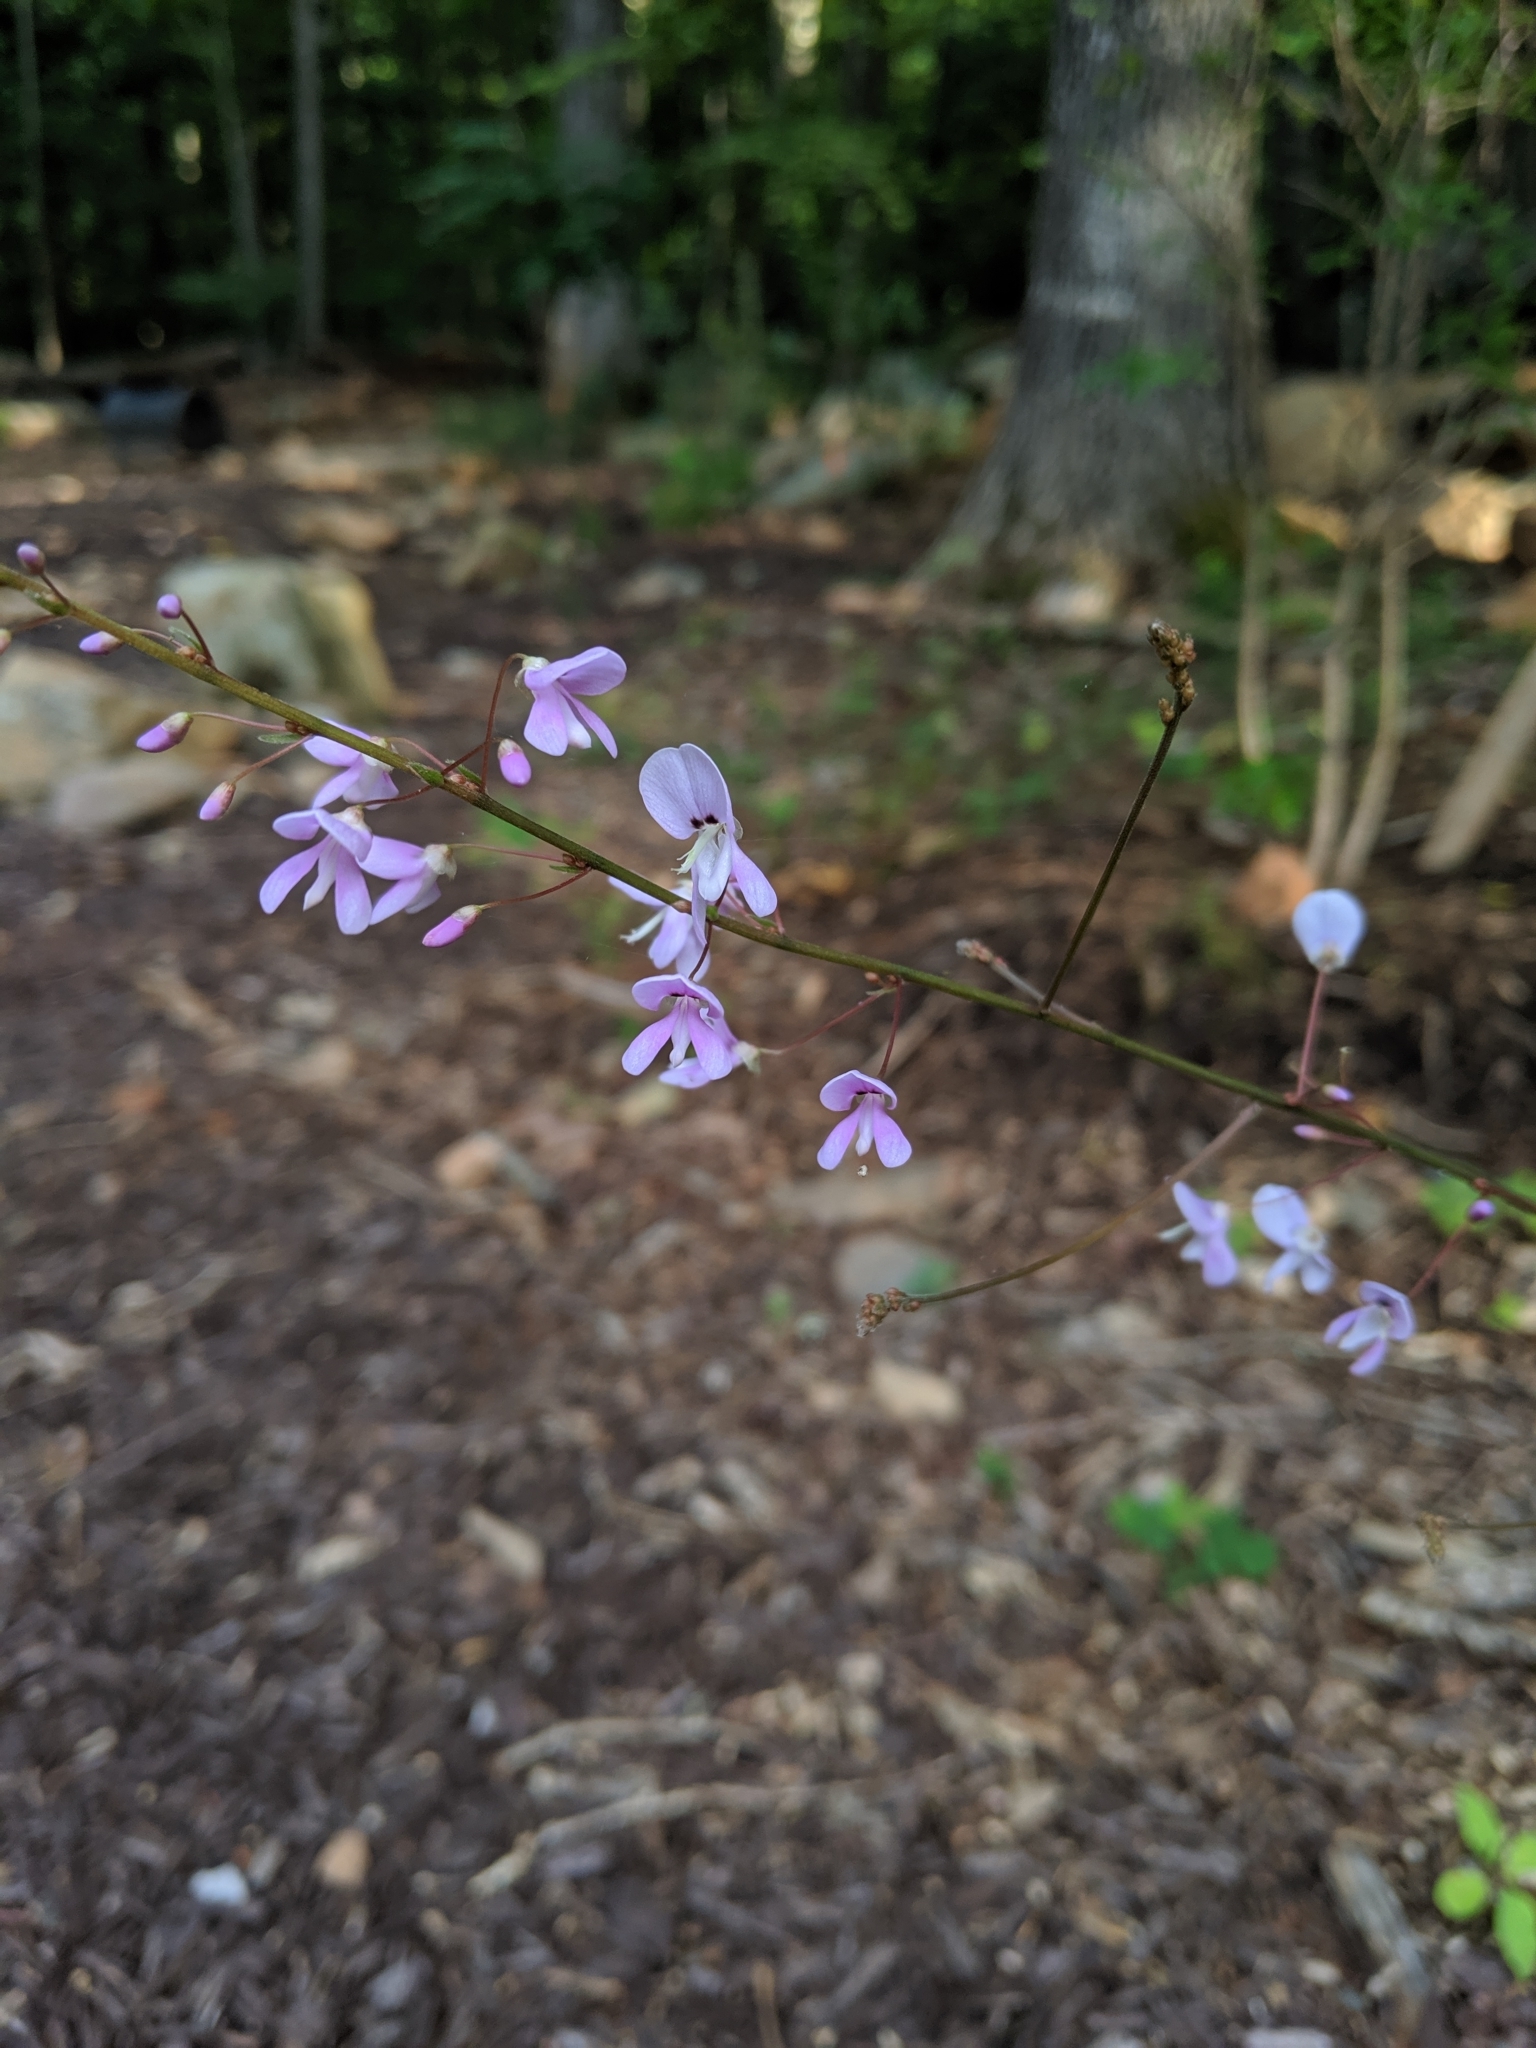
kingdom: Plantae
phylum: Tracheophyta
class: Magnoliopsida
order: Fabales
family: Fabaceae
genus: Hylodesmum
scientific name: Hylodesmum nudiflorum
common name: Bare-stemmed tick-trefoil
